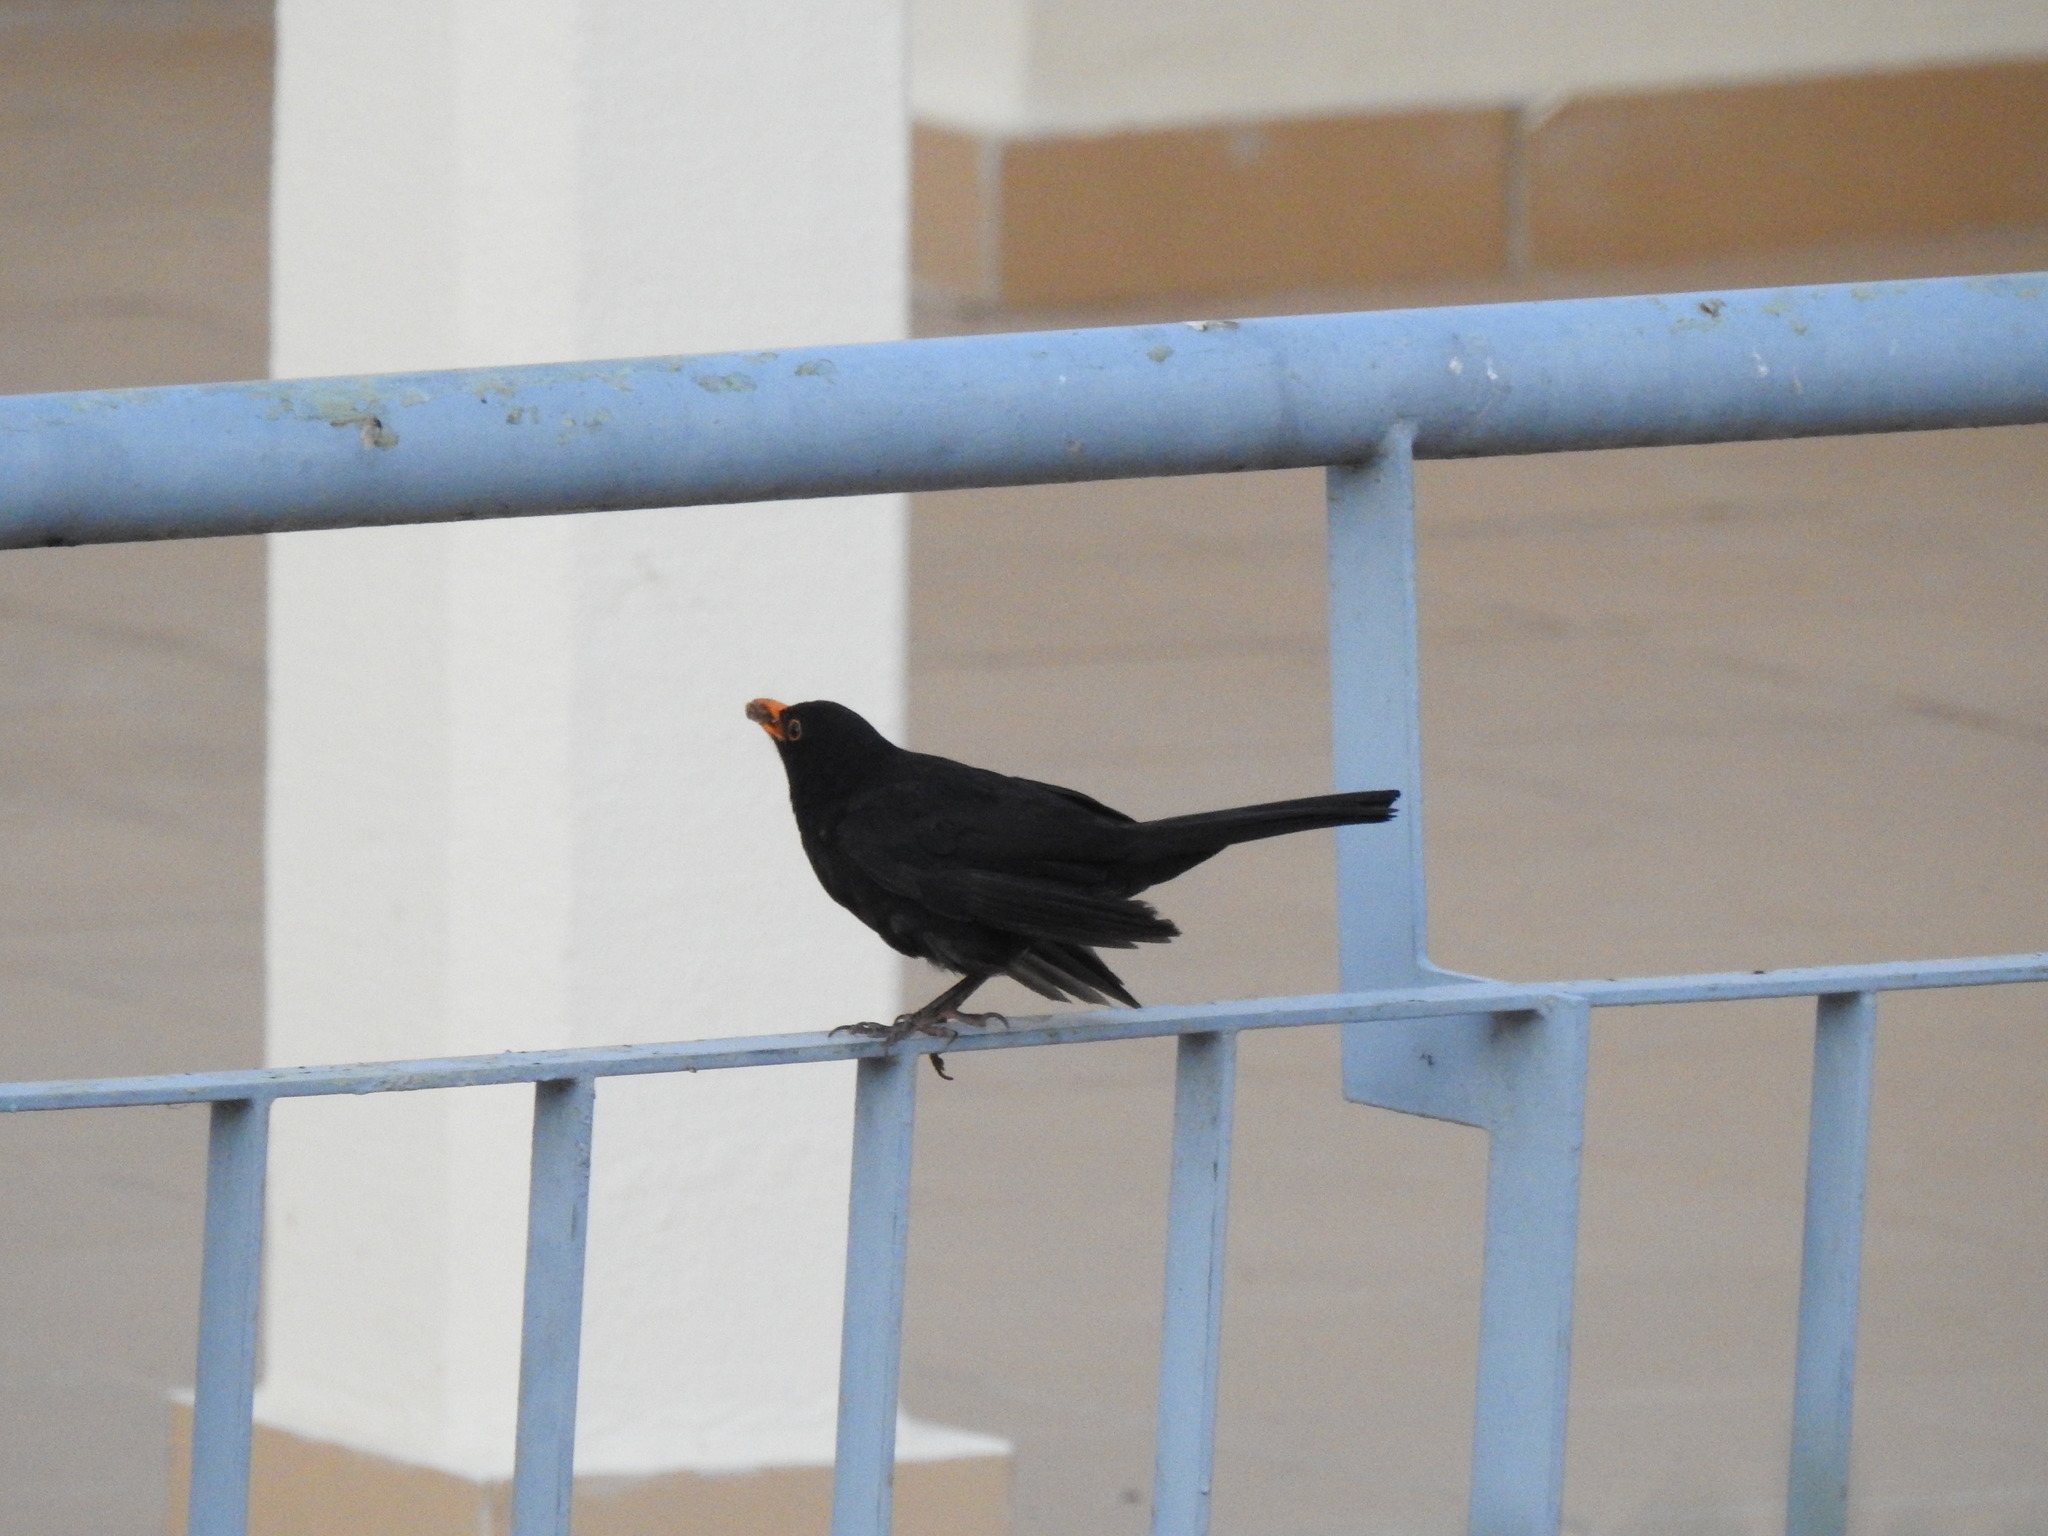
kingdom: Animalia
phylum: Chordata
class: Aves
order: Passeriformes
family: Turdidae
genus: Turdus
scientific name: Turdus merula
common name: Common blackbird
